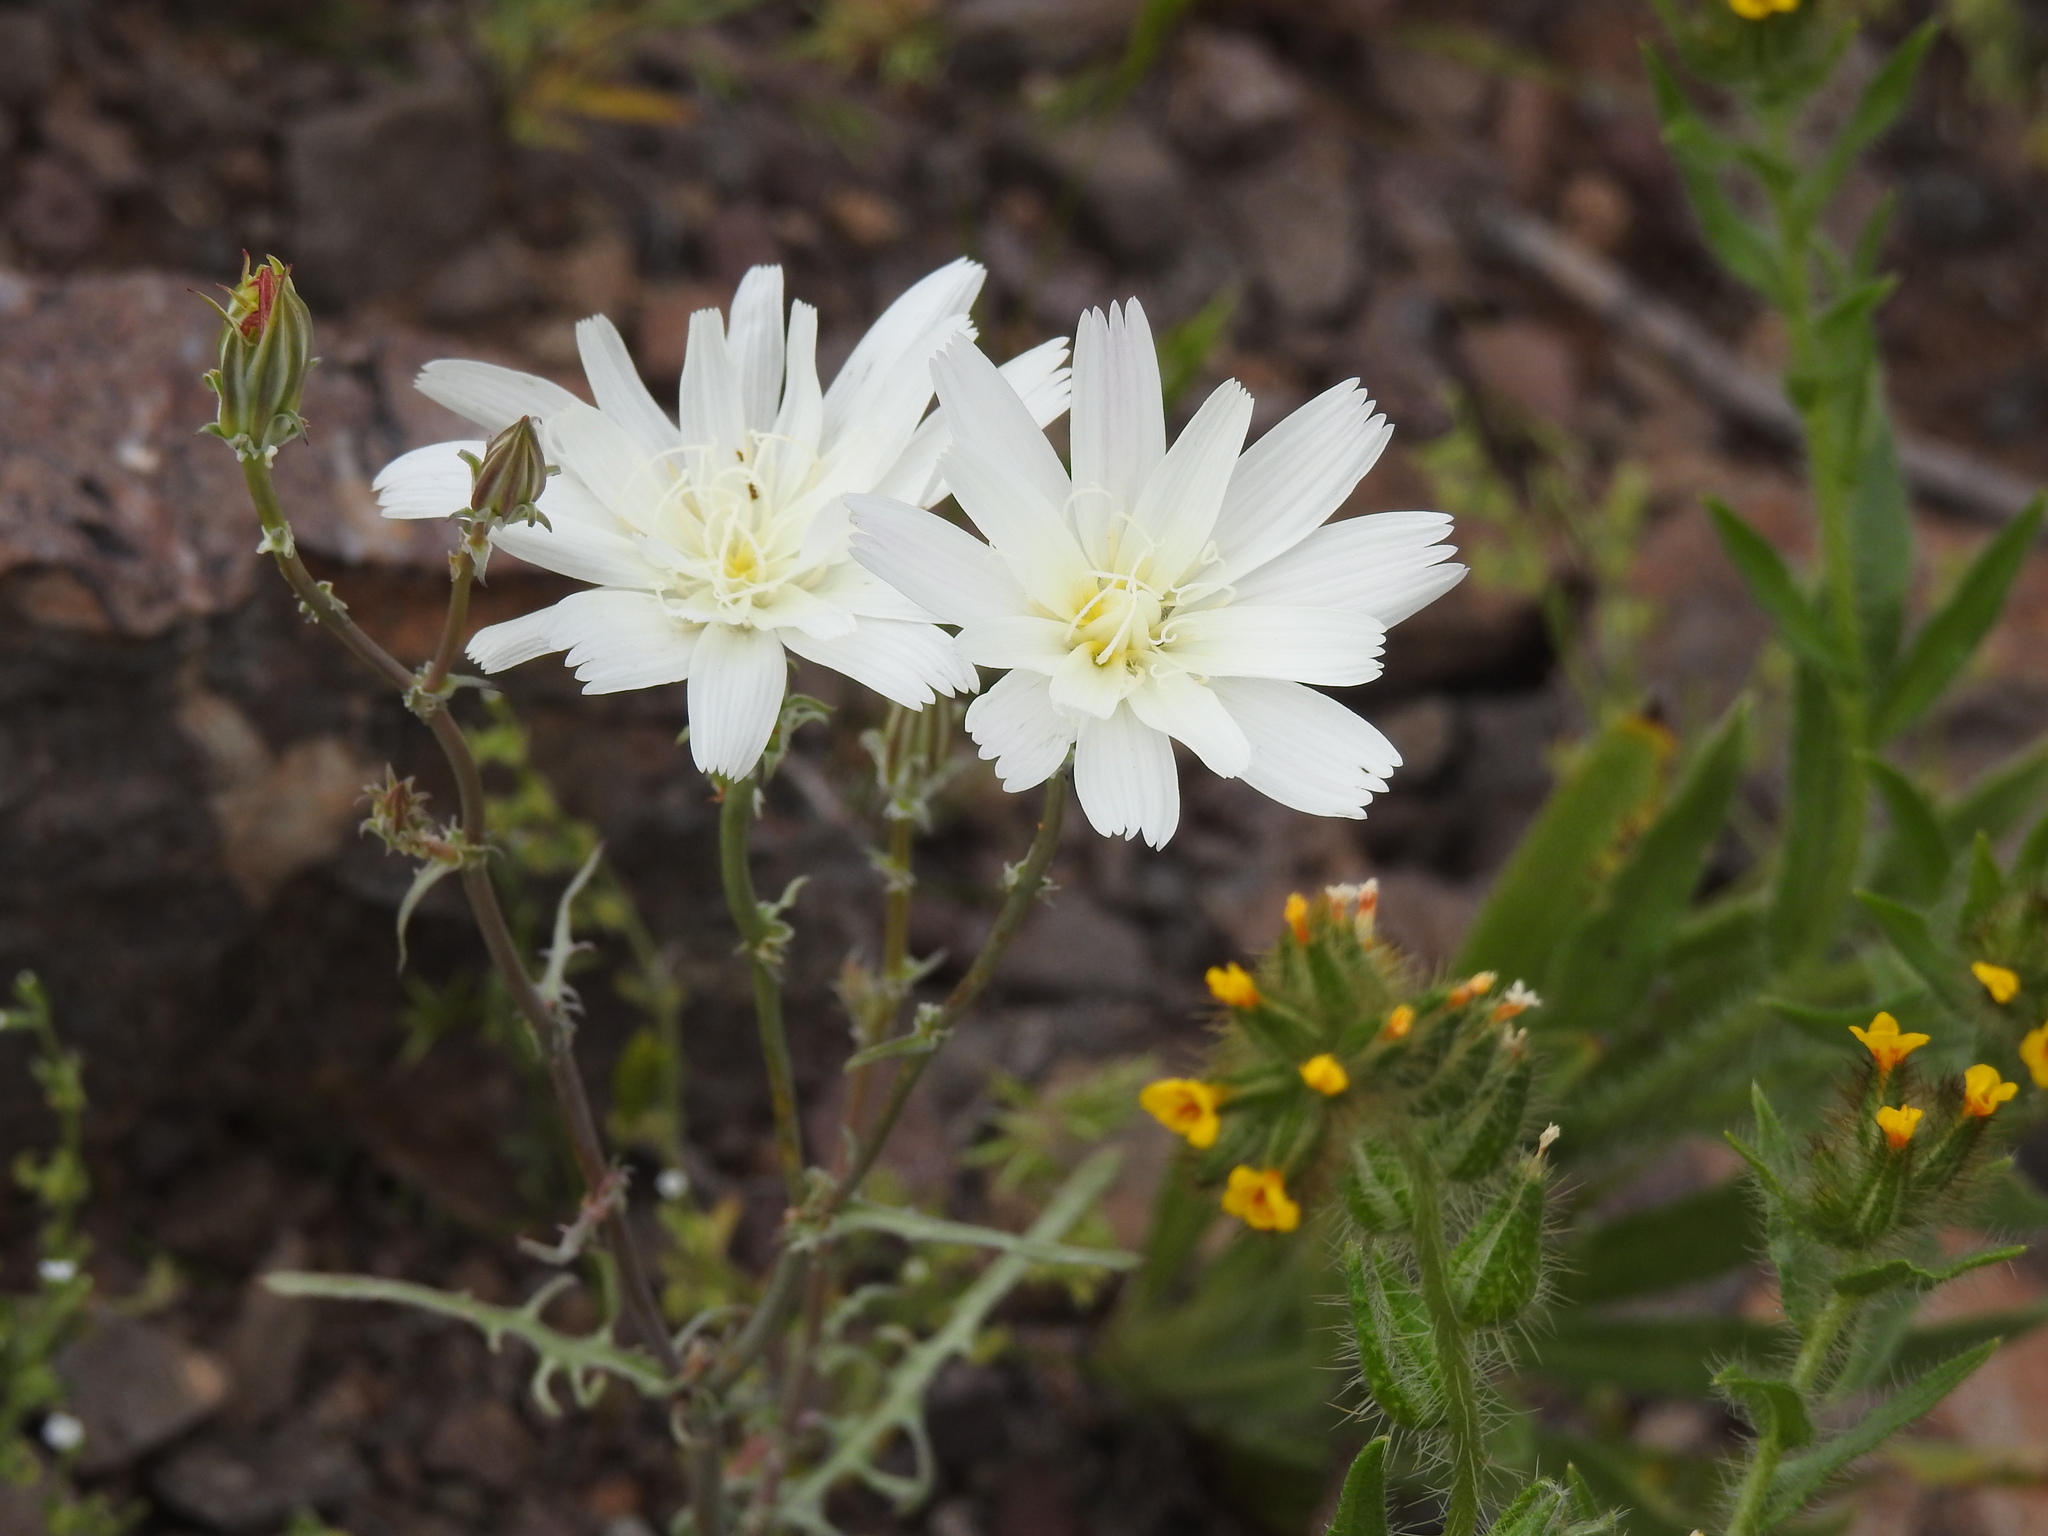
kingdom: Plantae
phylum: Tracheophyta
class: Magnoliopsida
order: Asterales
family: Asteraceae
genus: Rafinesquia
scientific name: Rafinesquia neomexicana
